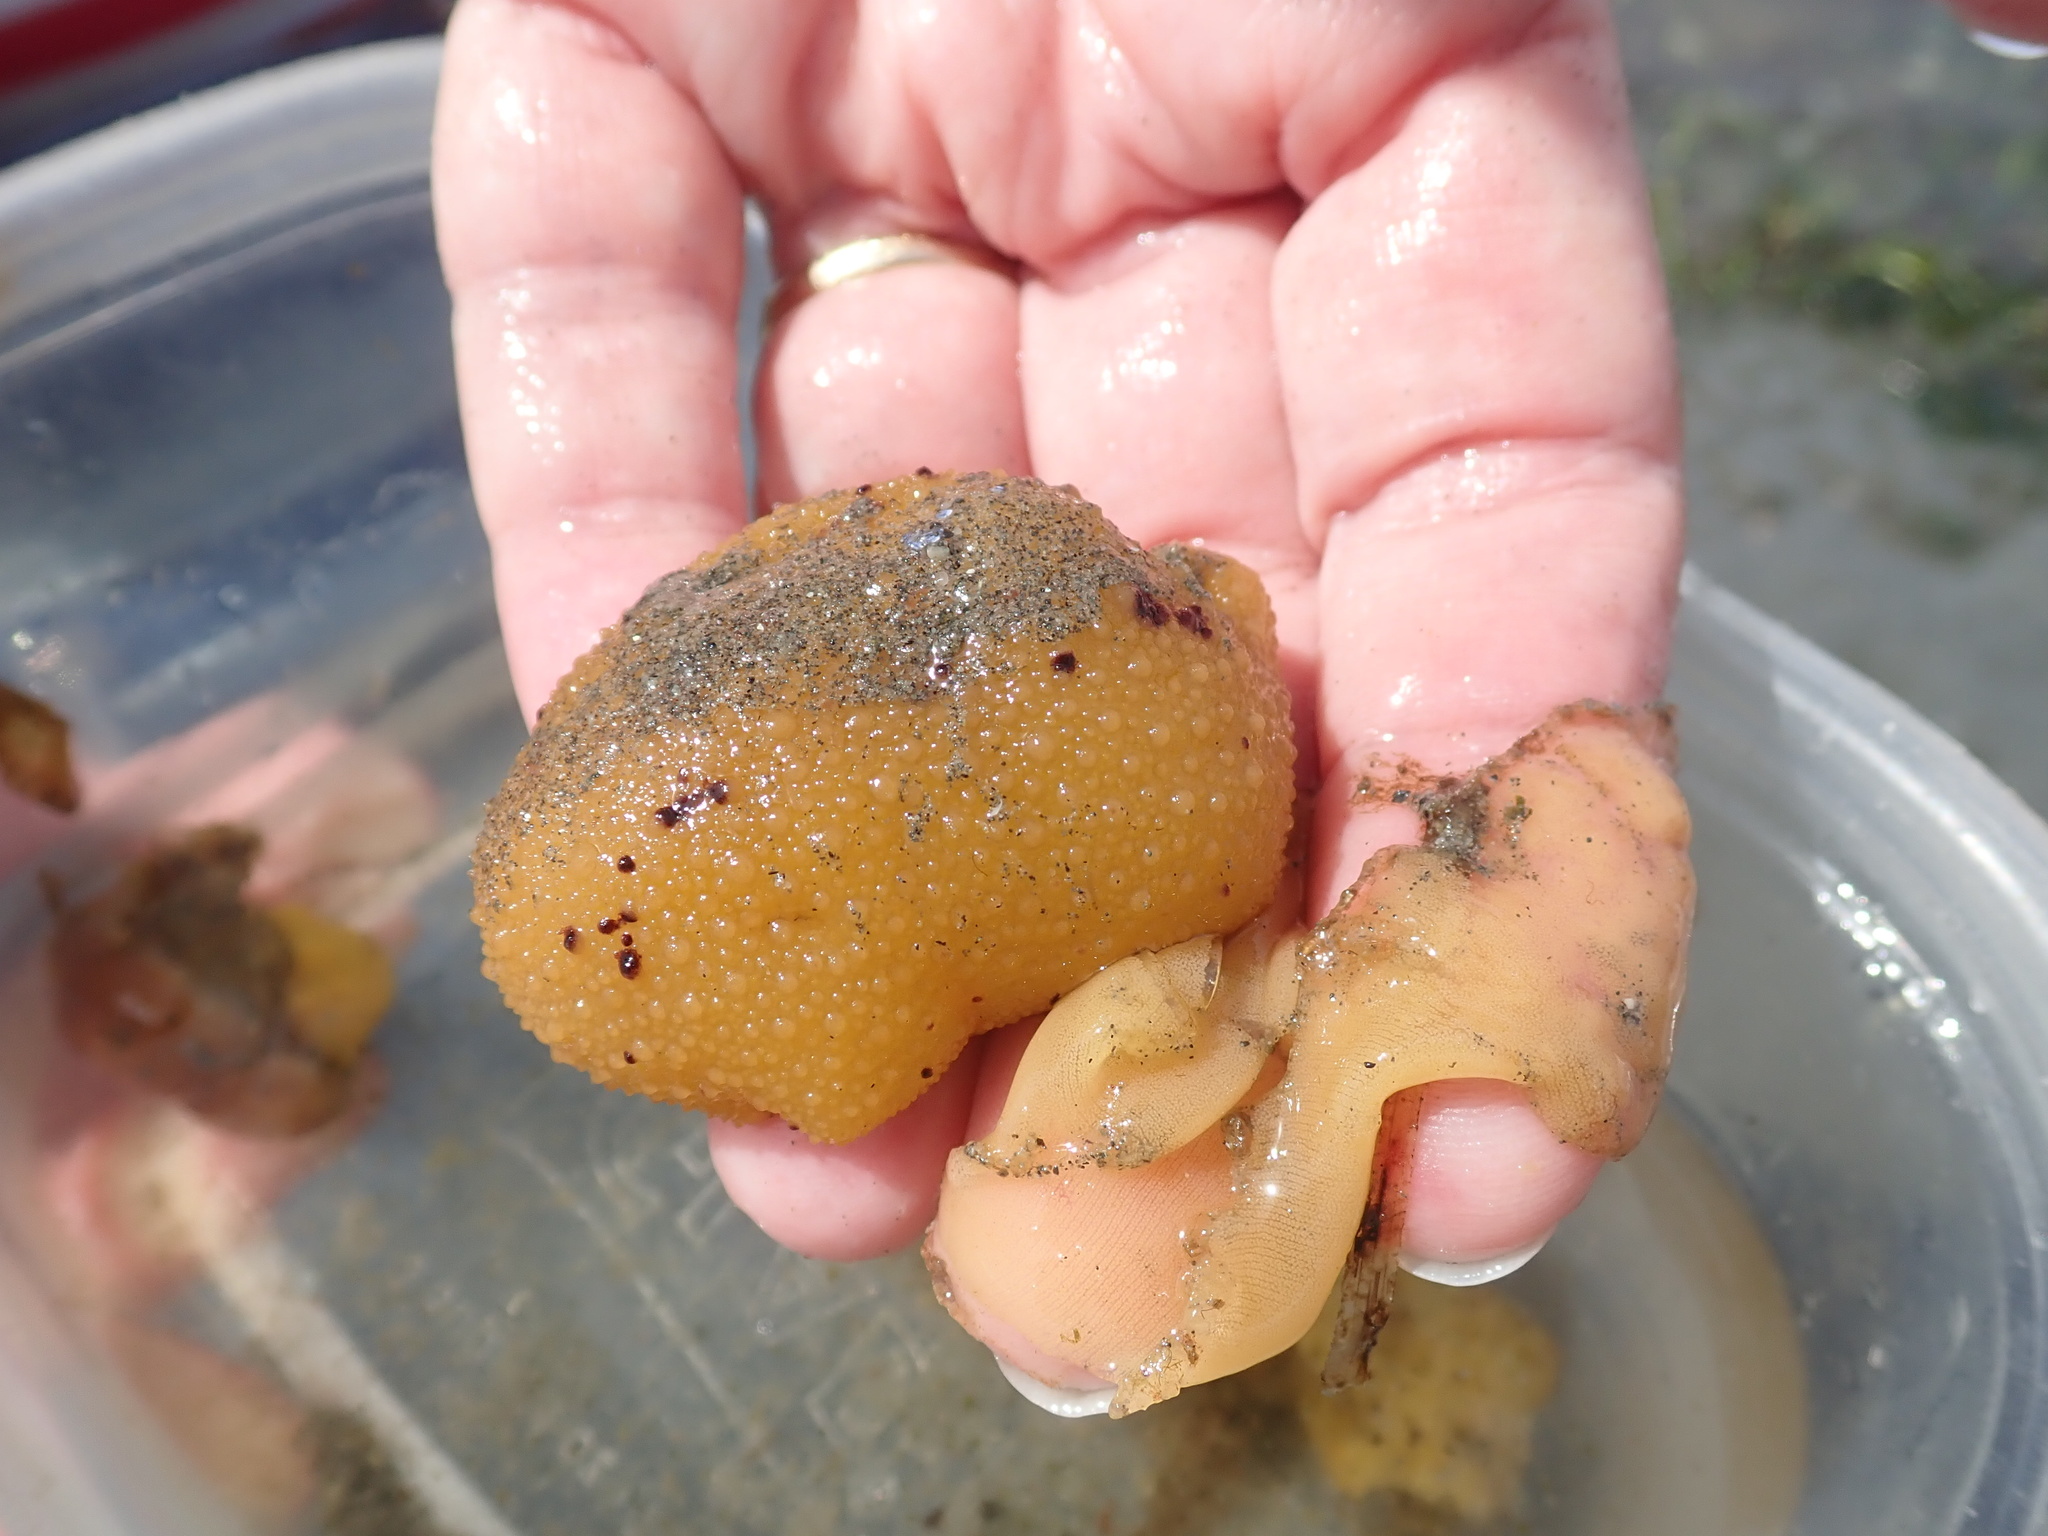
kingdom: Animalia
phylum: Mollusca
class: Gastropoda
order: Nudibranchia
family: Dorididae
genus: Doris
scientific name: Doris montereyensis
